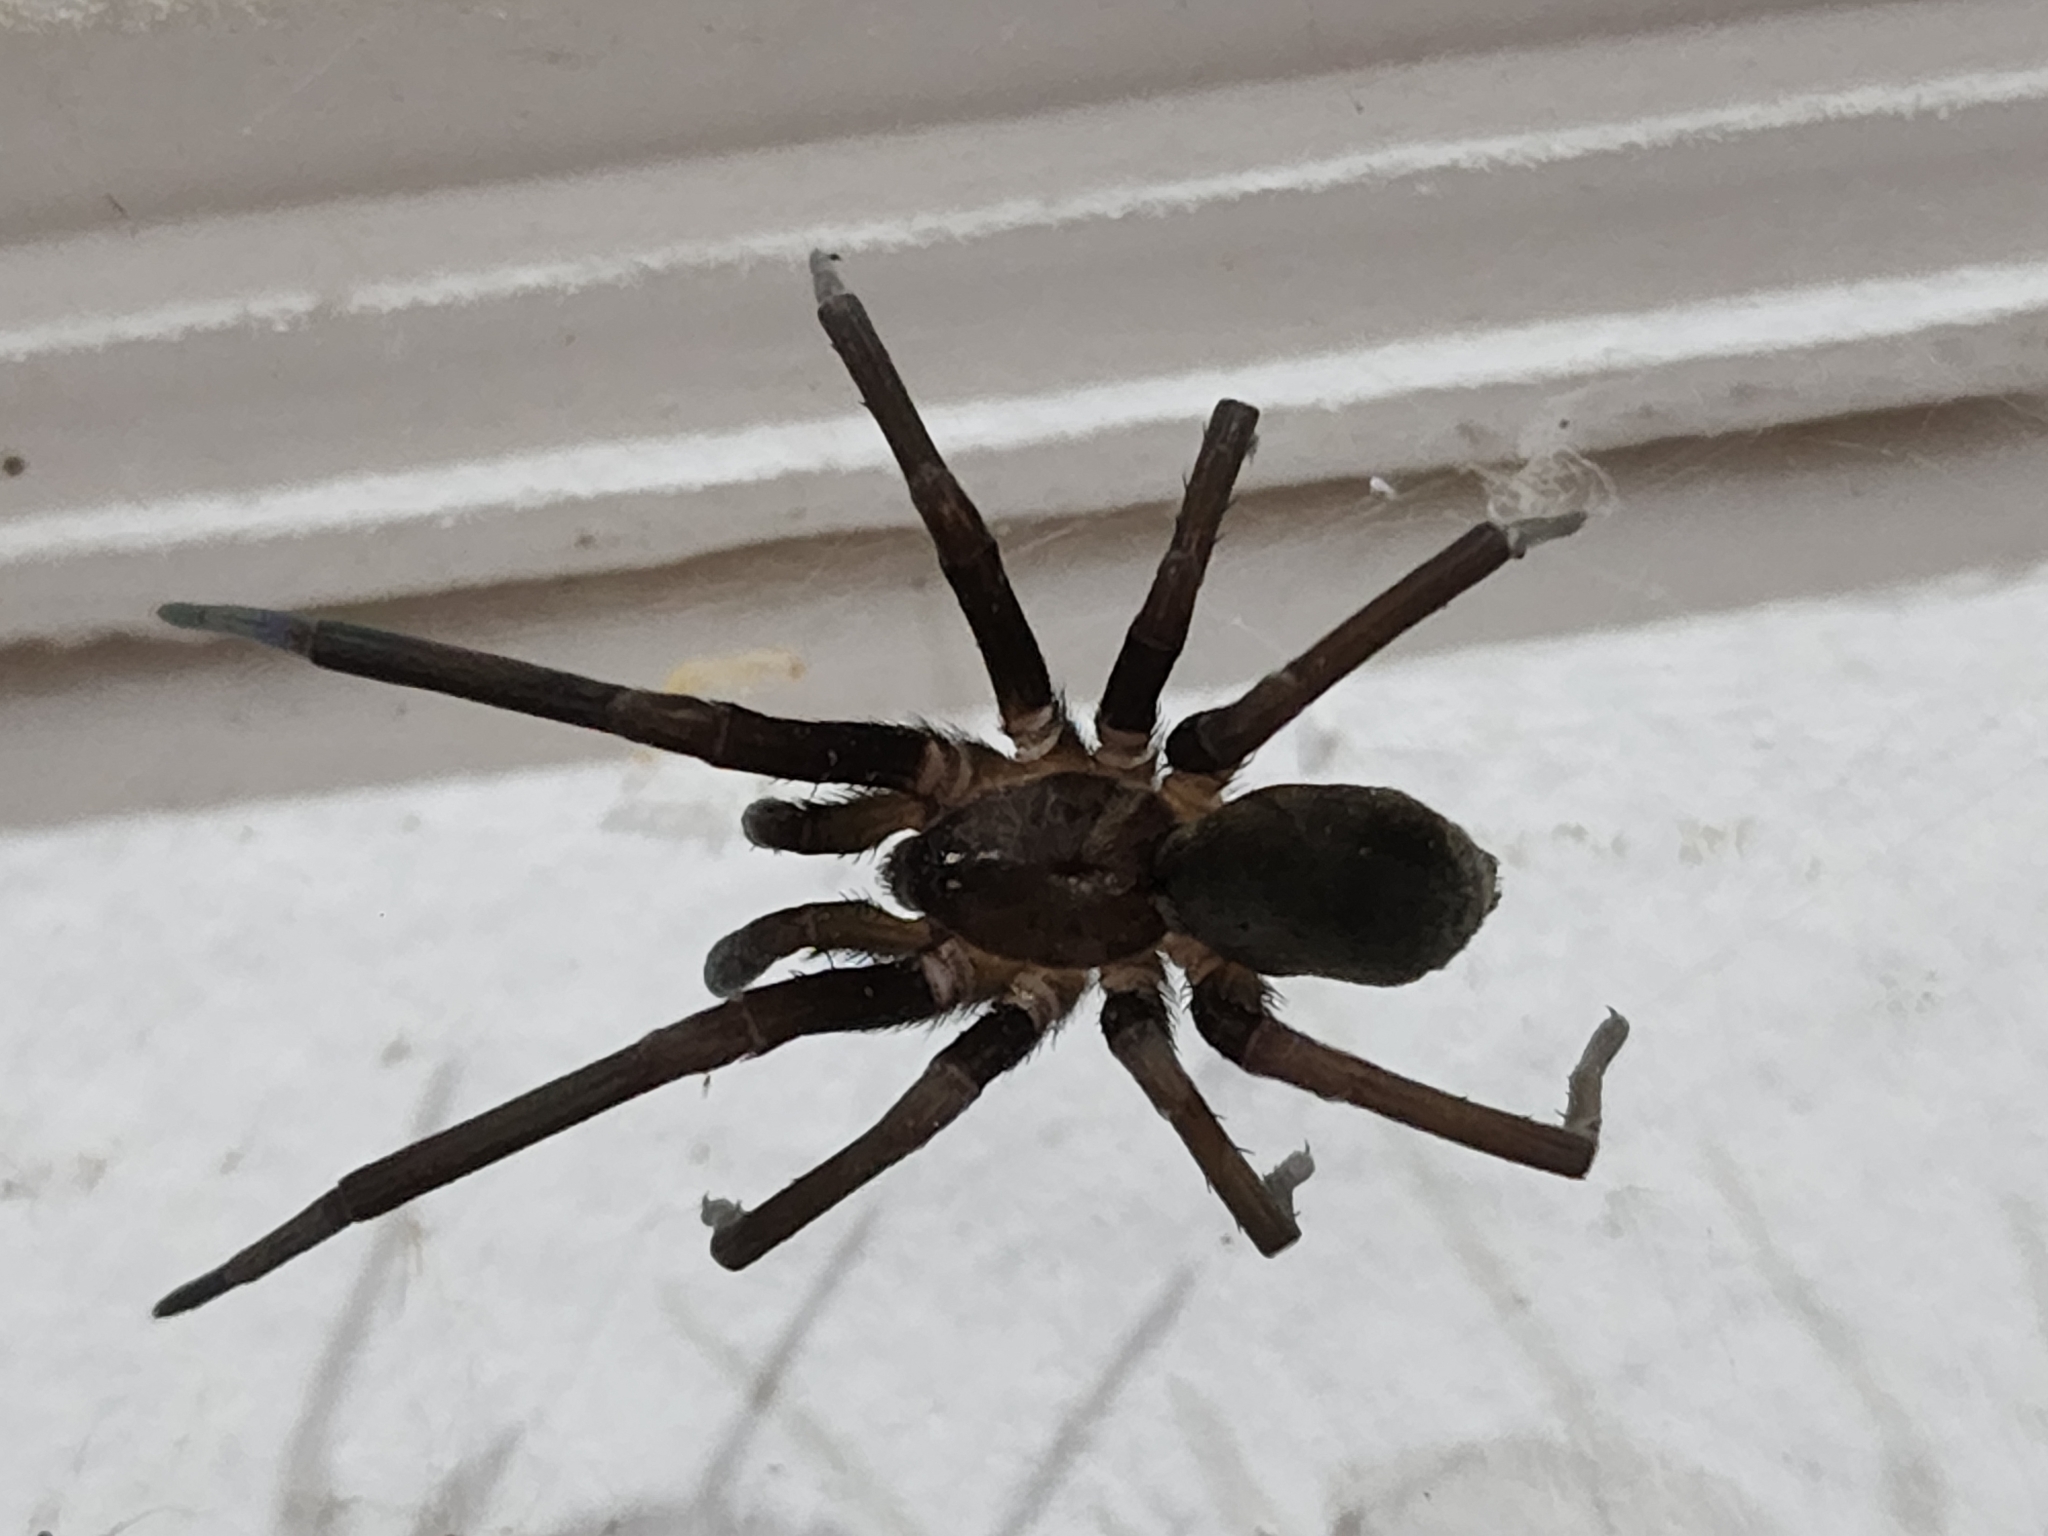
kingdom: Animalia
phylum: Arthropoda
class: Arachnida
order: Araneae
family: Filistatidae
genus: Kukulcania
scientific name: Kukulcania hibernalis
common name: Crevice weaver
